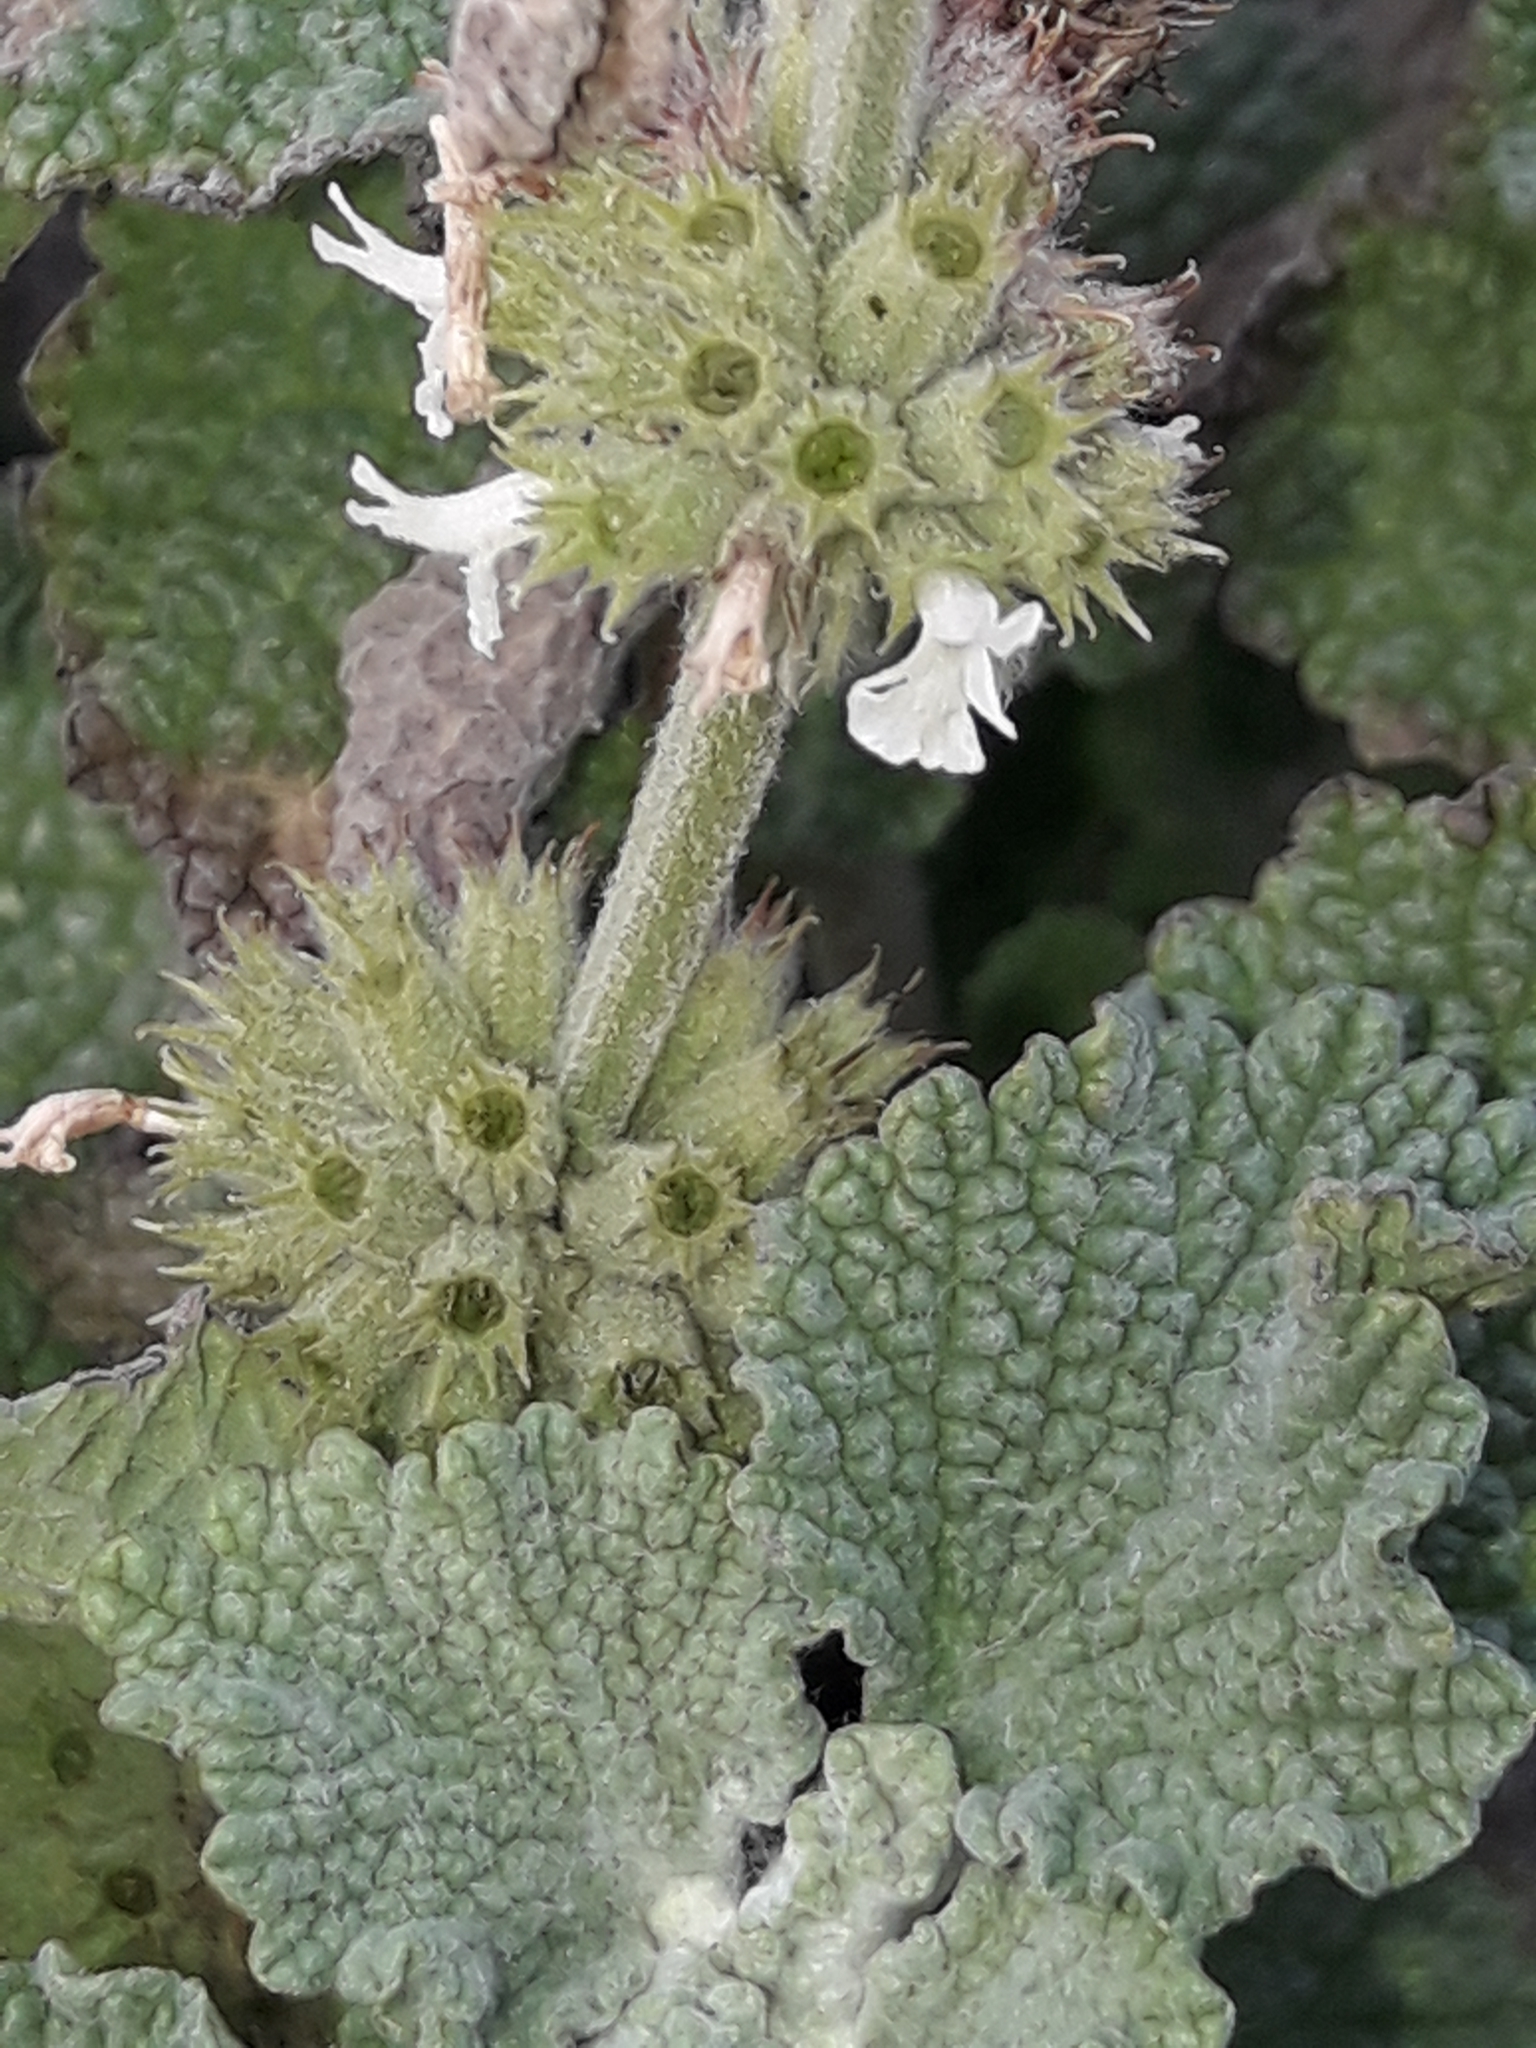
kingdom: Plantae
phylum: Tracheophyta
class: Magnoliopsida
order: Lamiales
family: Lamiaceae
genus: Marrubium
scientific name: Marrubium vulgare
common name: Horehound
